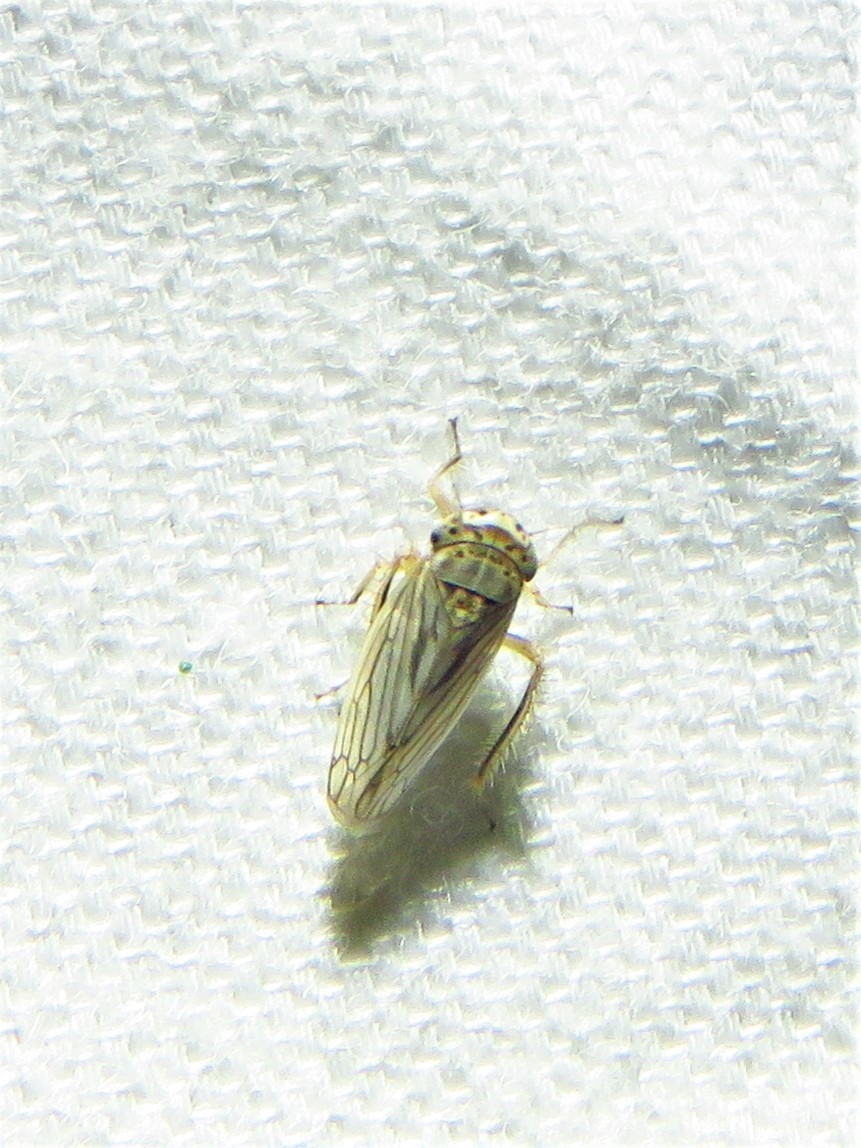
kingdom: Animalia
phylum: Arthropoda
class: Insecta
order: Hemiptera
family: Cicadellidae
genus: Exitianus
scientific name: Exitianus exitiosus
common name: Gray lawn leafhopper
